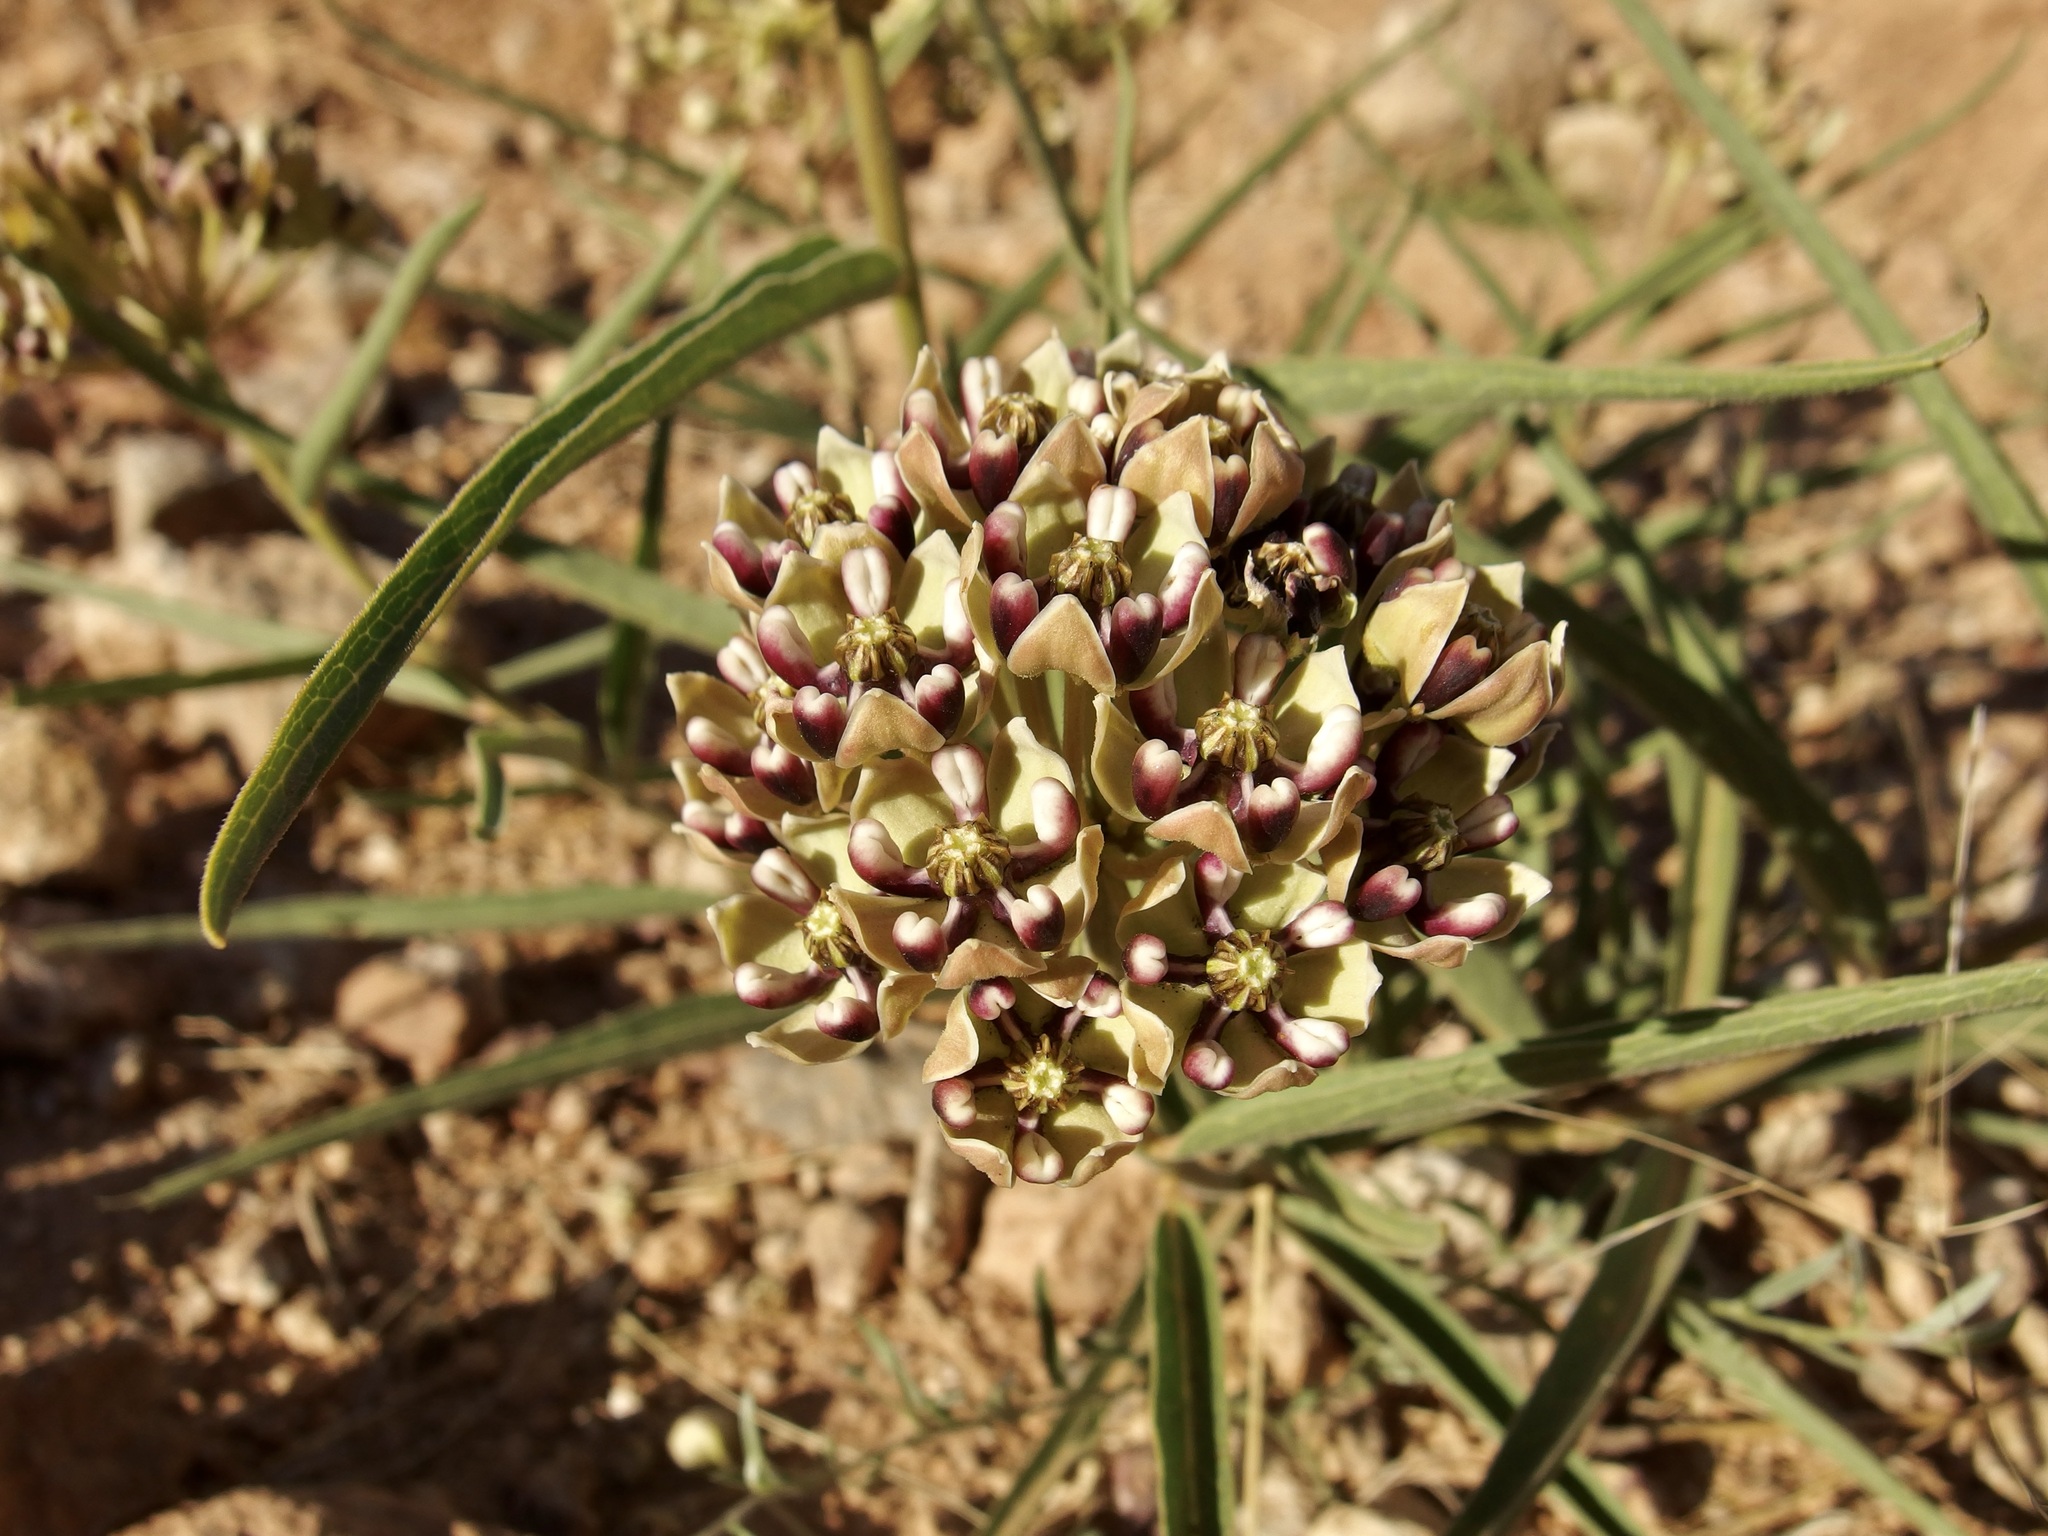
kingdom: Plantae
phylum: Tracheophyta
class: Magnoliopsida
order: Gentianales
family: Apocynaceae
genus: Asclepias
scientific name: Asclepias asperula
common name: Antelope horns
